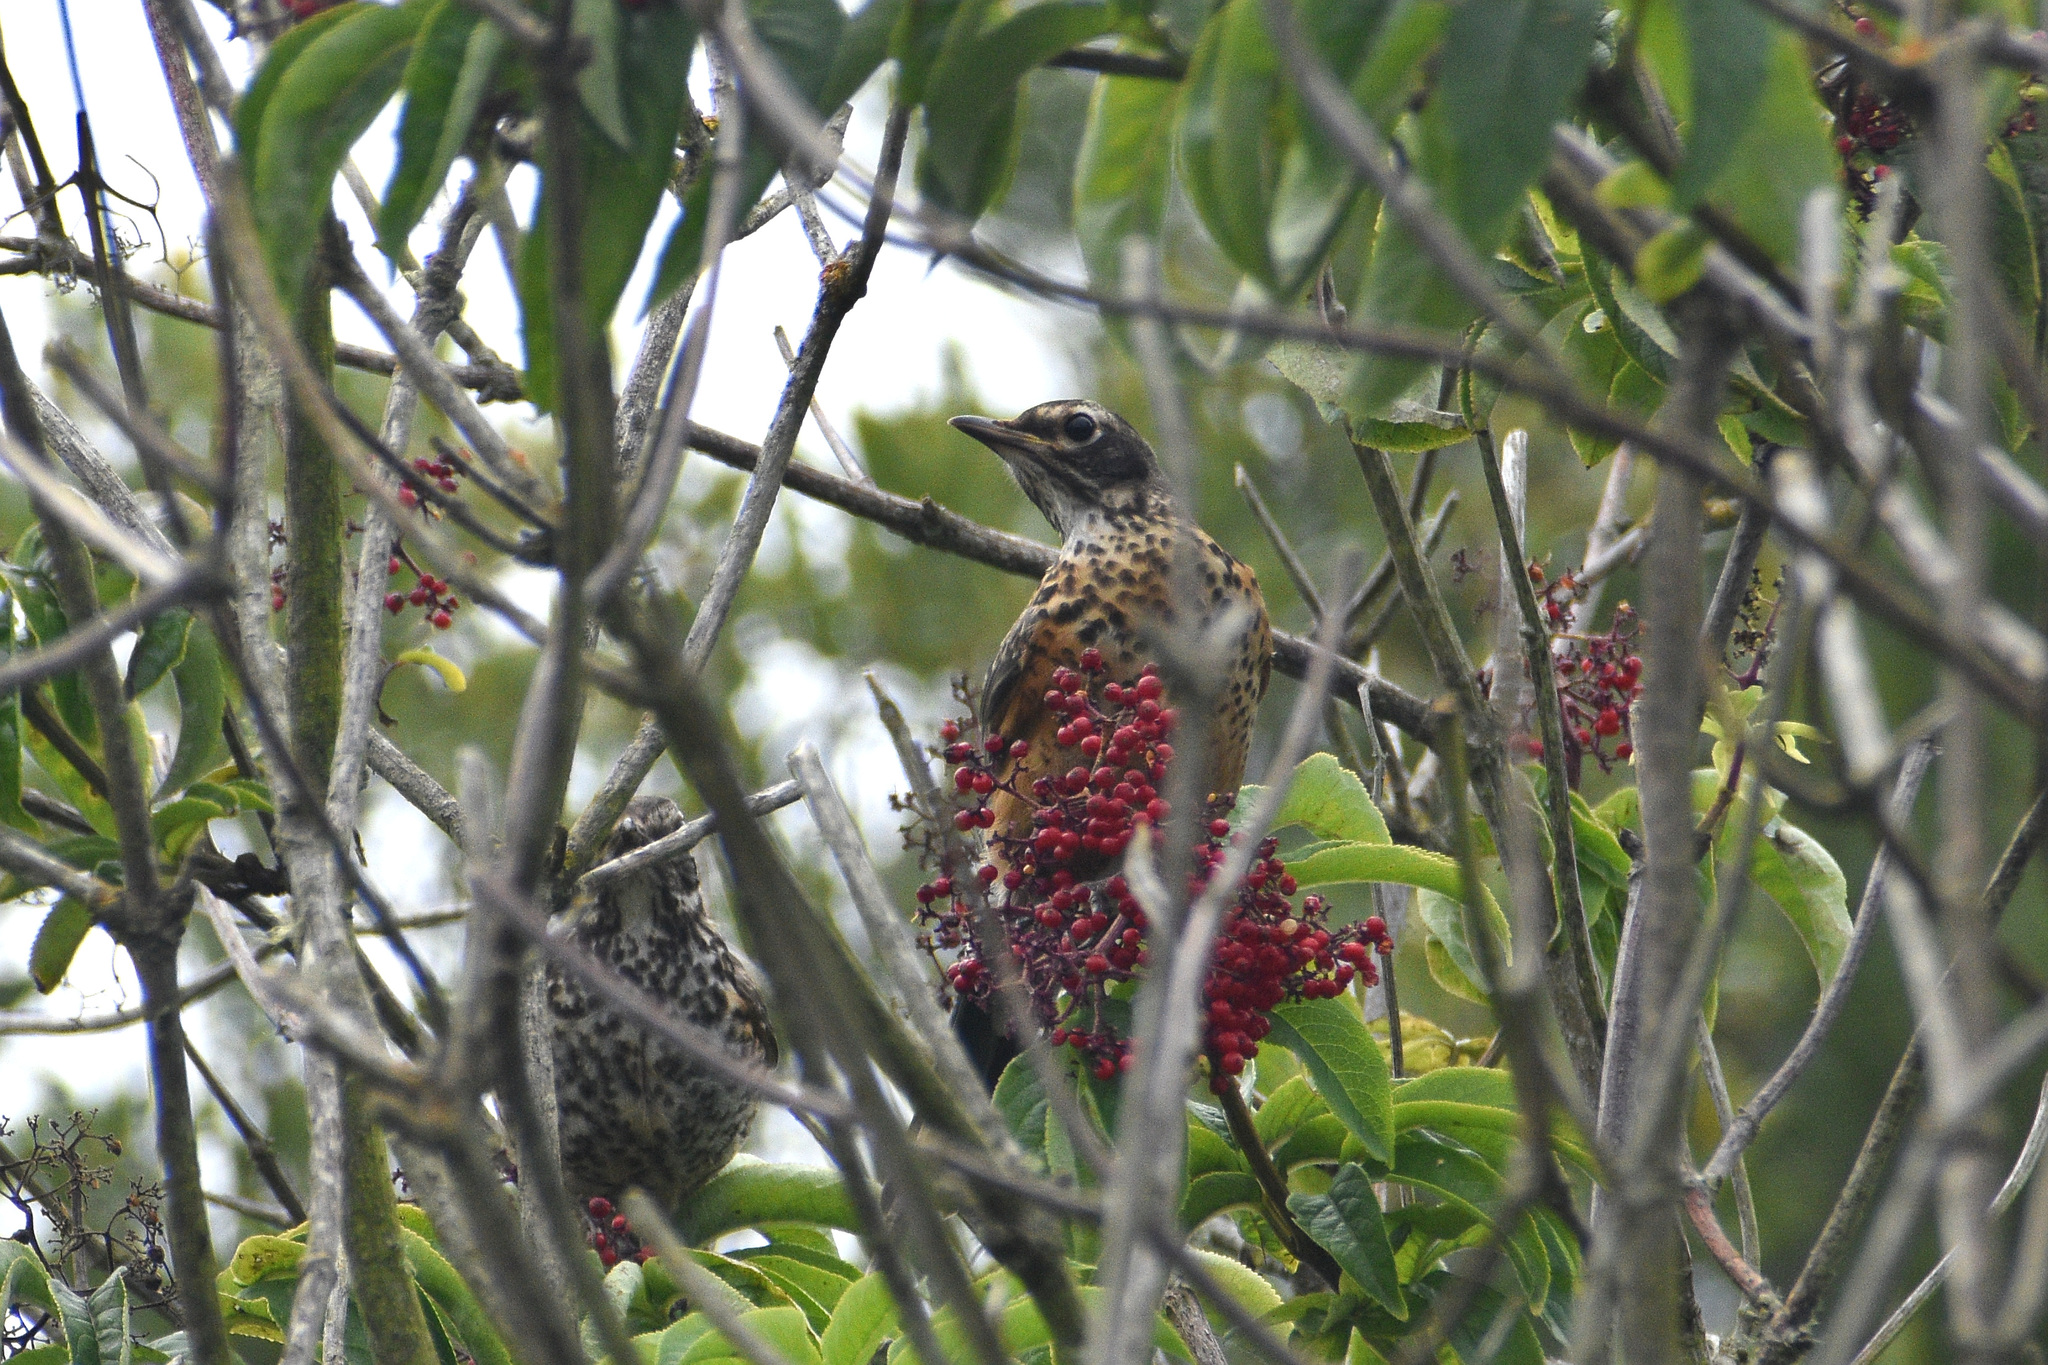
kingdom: Animalia
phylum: Chordata
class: Aves
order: Passeriformes
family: Turdidae
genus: Turdus
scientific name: Turdus migratorius
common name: American robin
